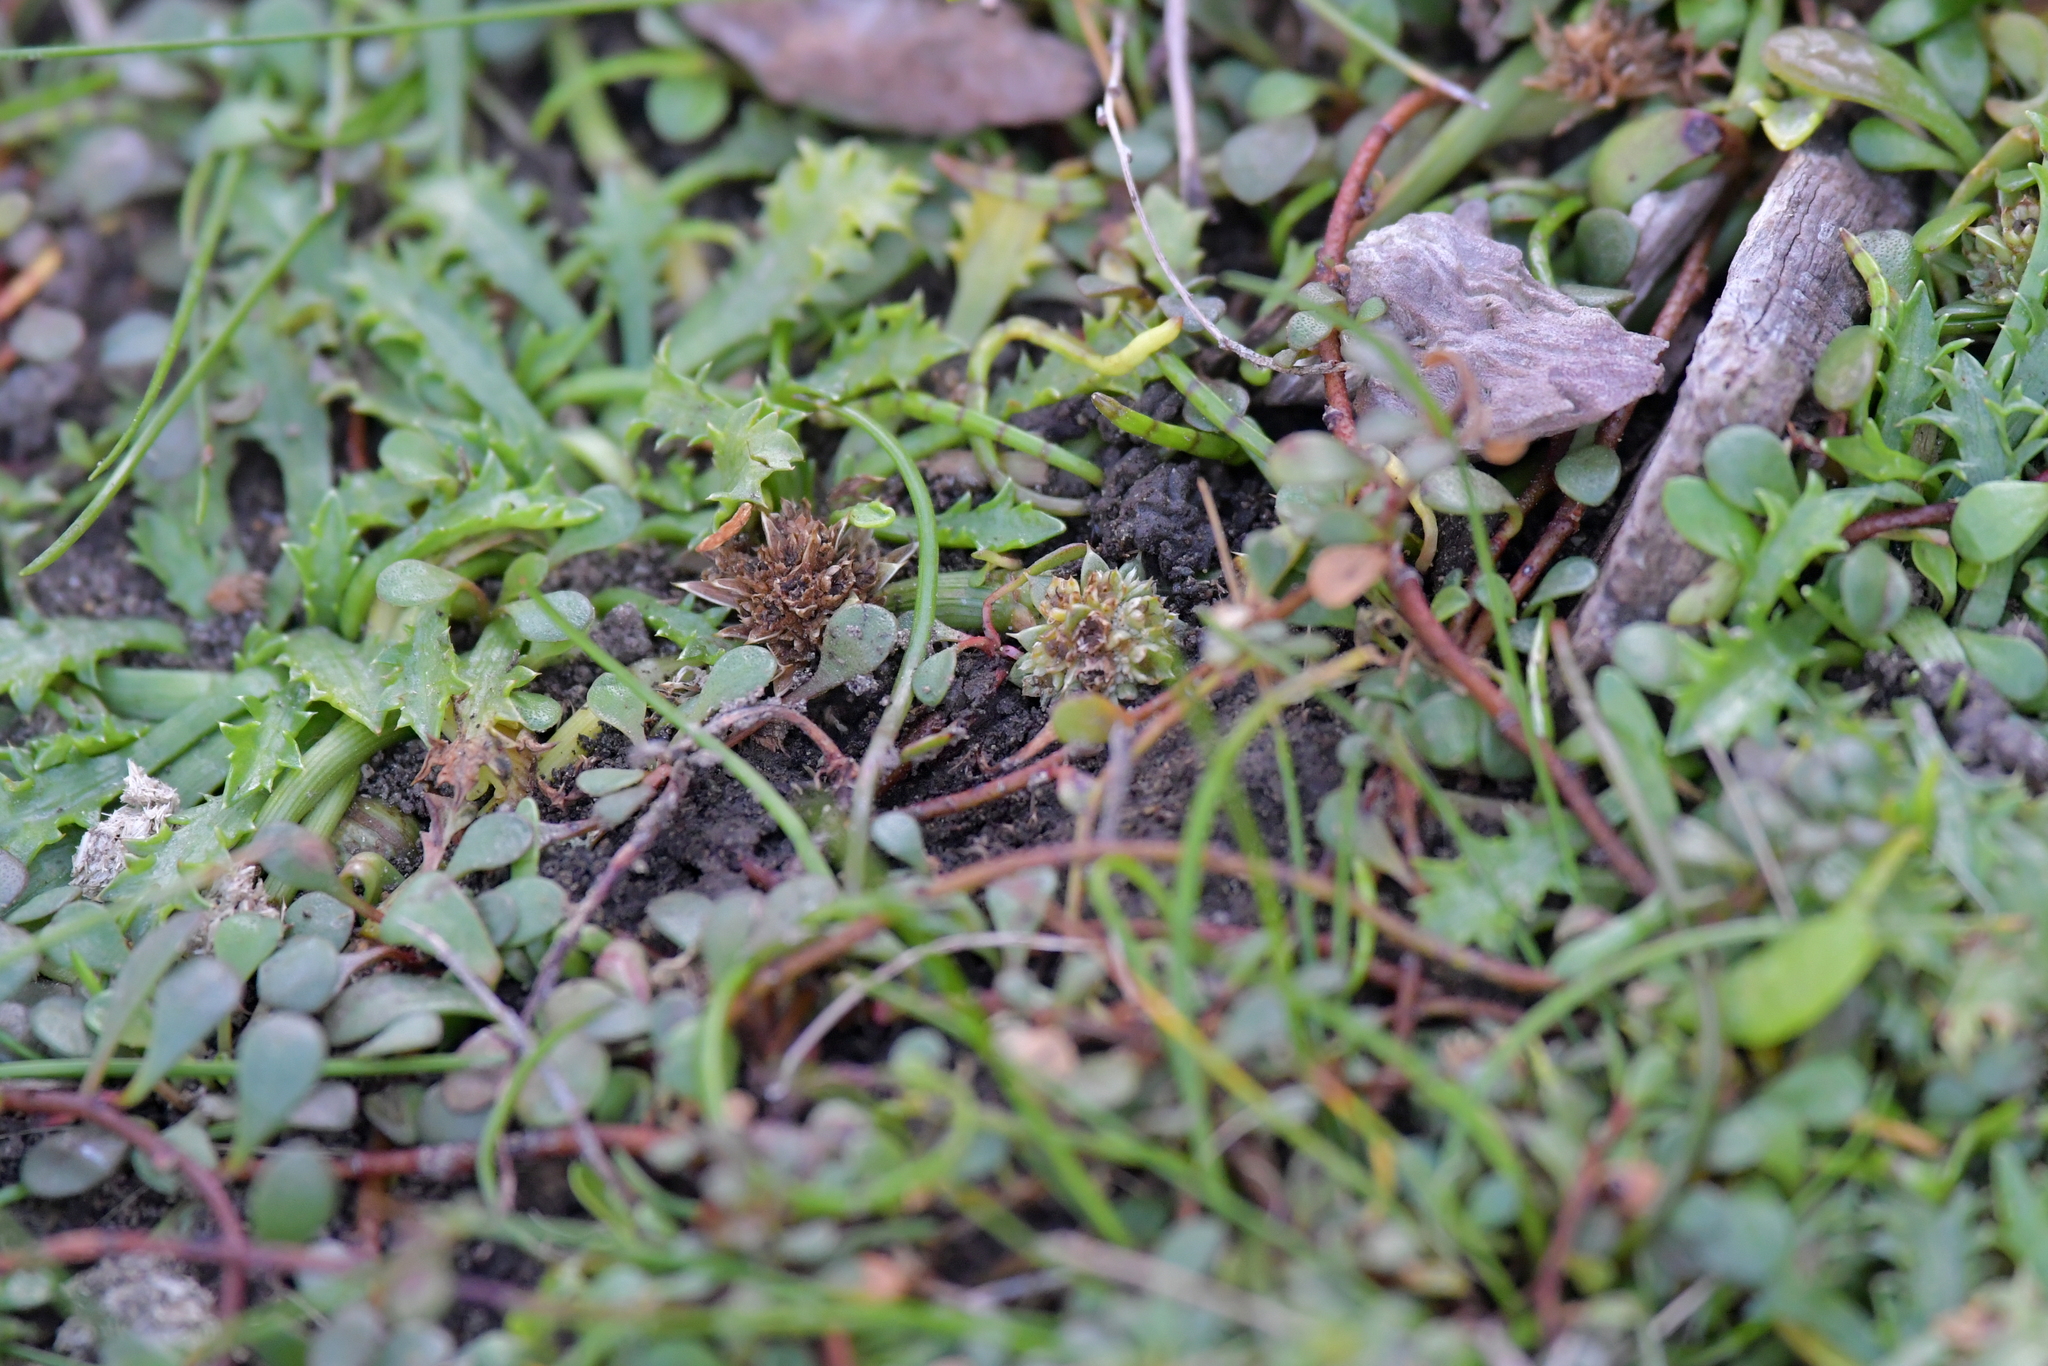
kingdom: Plantae
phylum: Tracheophyta
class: Magnoliopsida
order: Apiales
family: Apiaceae
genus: Eryngium
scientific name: Eryngium vesiculosum
